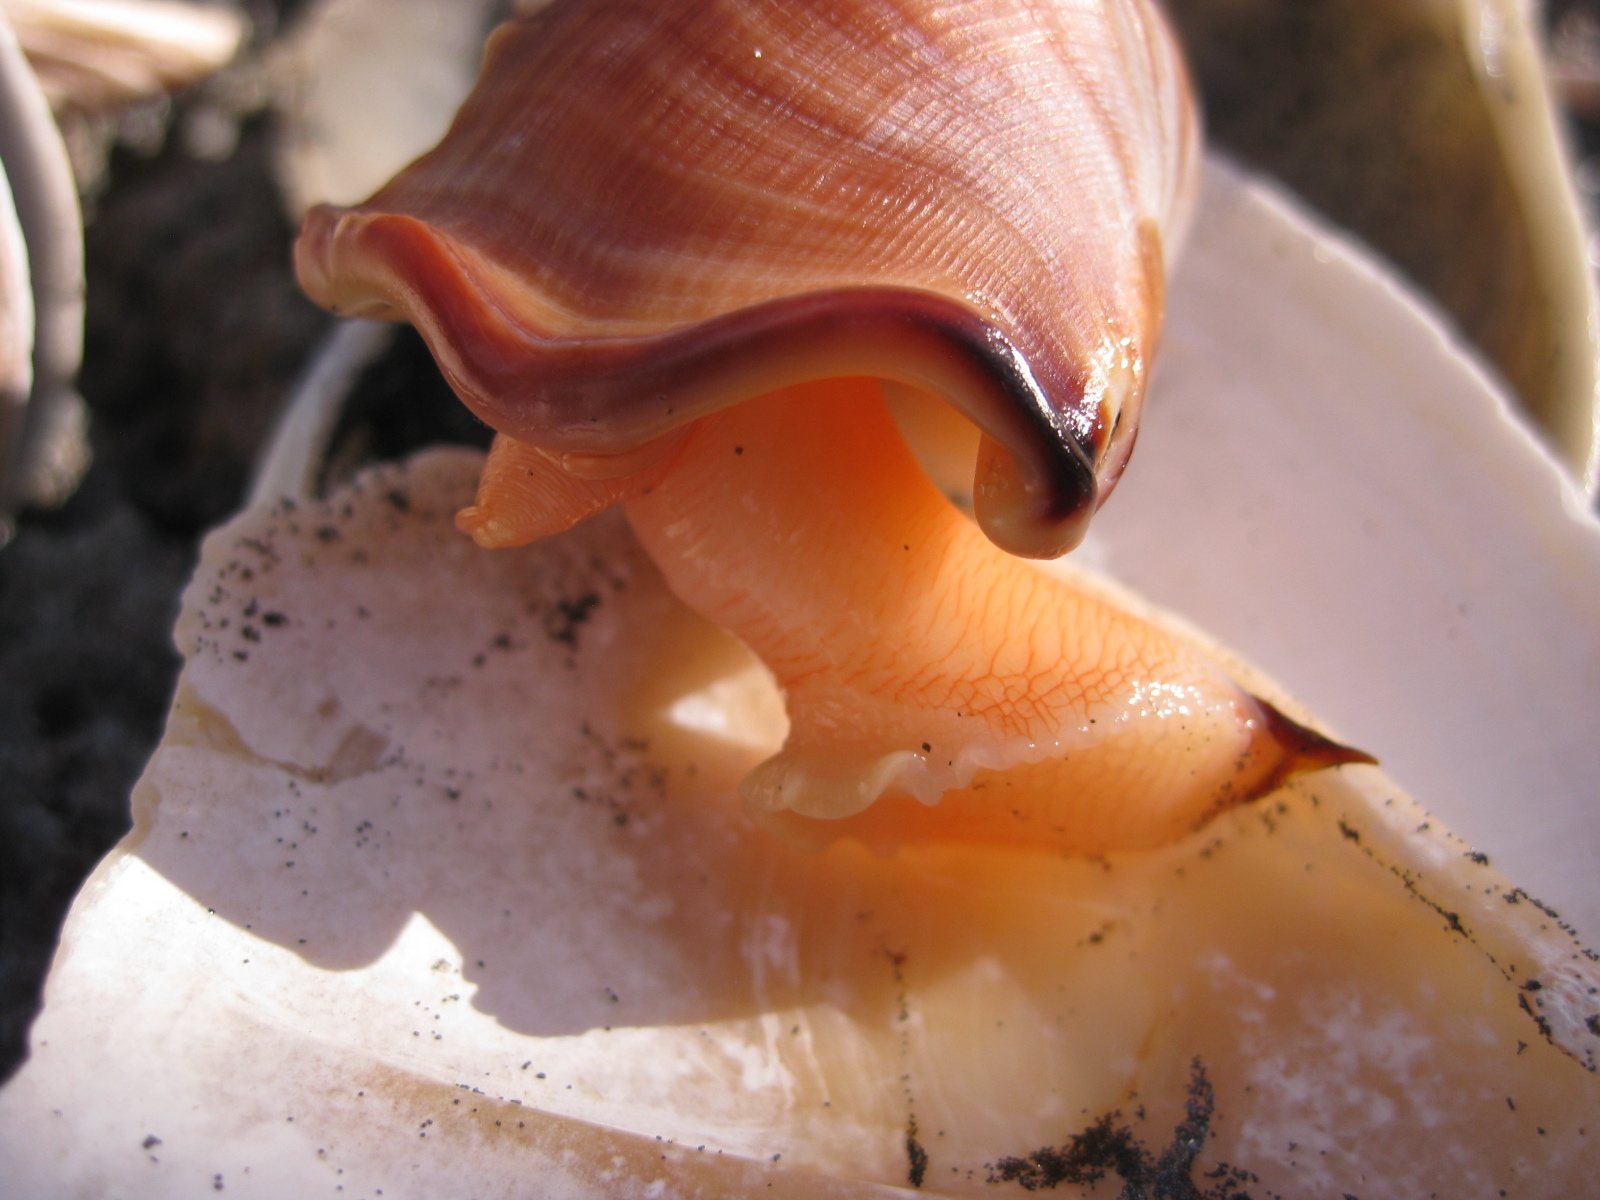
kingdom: Animalia
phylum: Mollusca
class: Gastropoda
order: Littorinimorpha
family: Struthiolariidae
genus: Struthiolaria
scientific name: Struthiolaria papulosa
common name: Large ostrich foot
